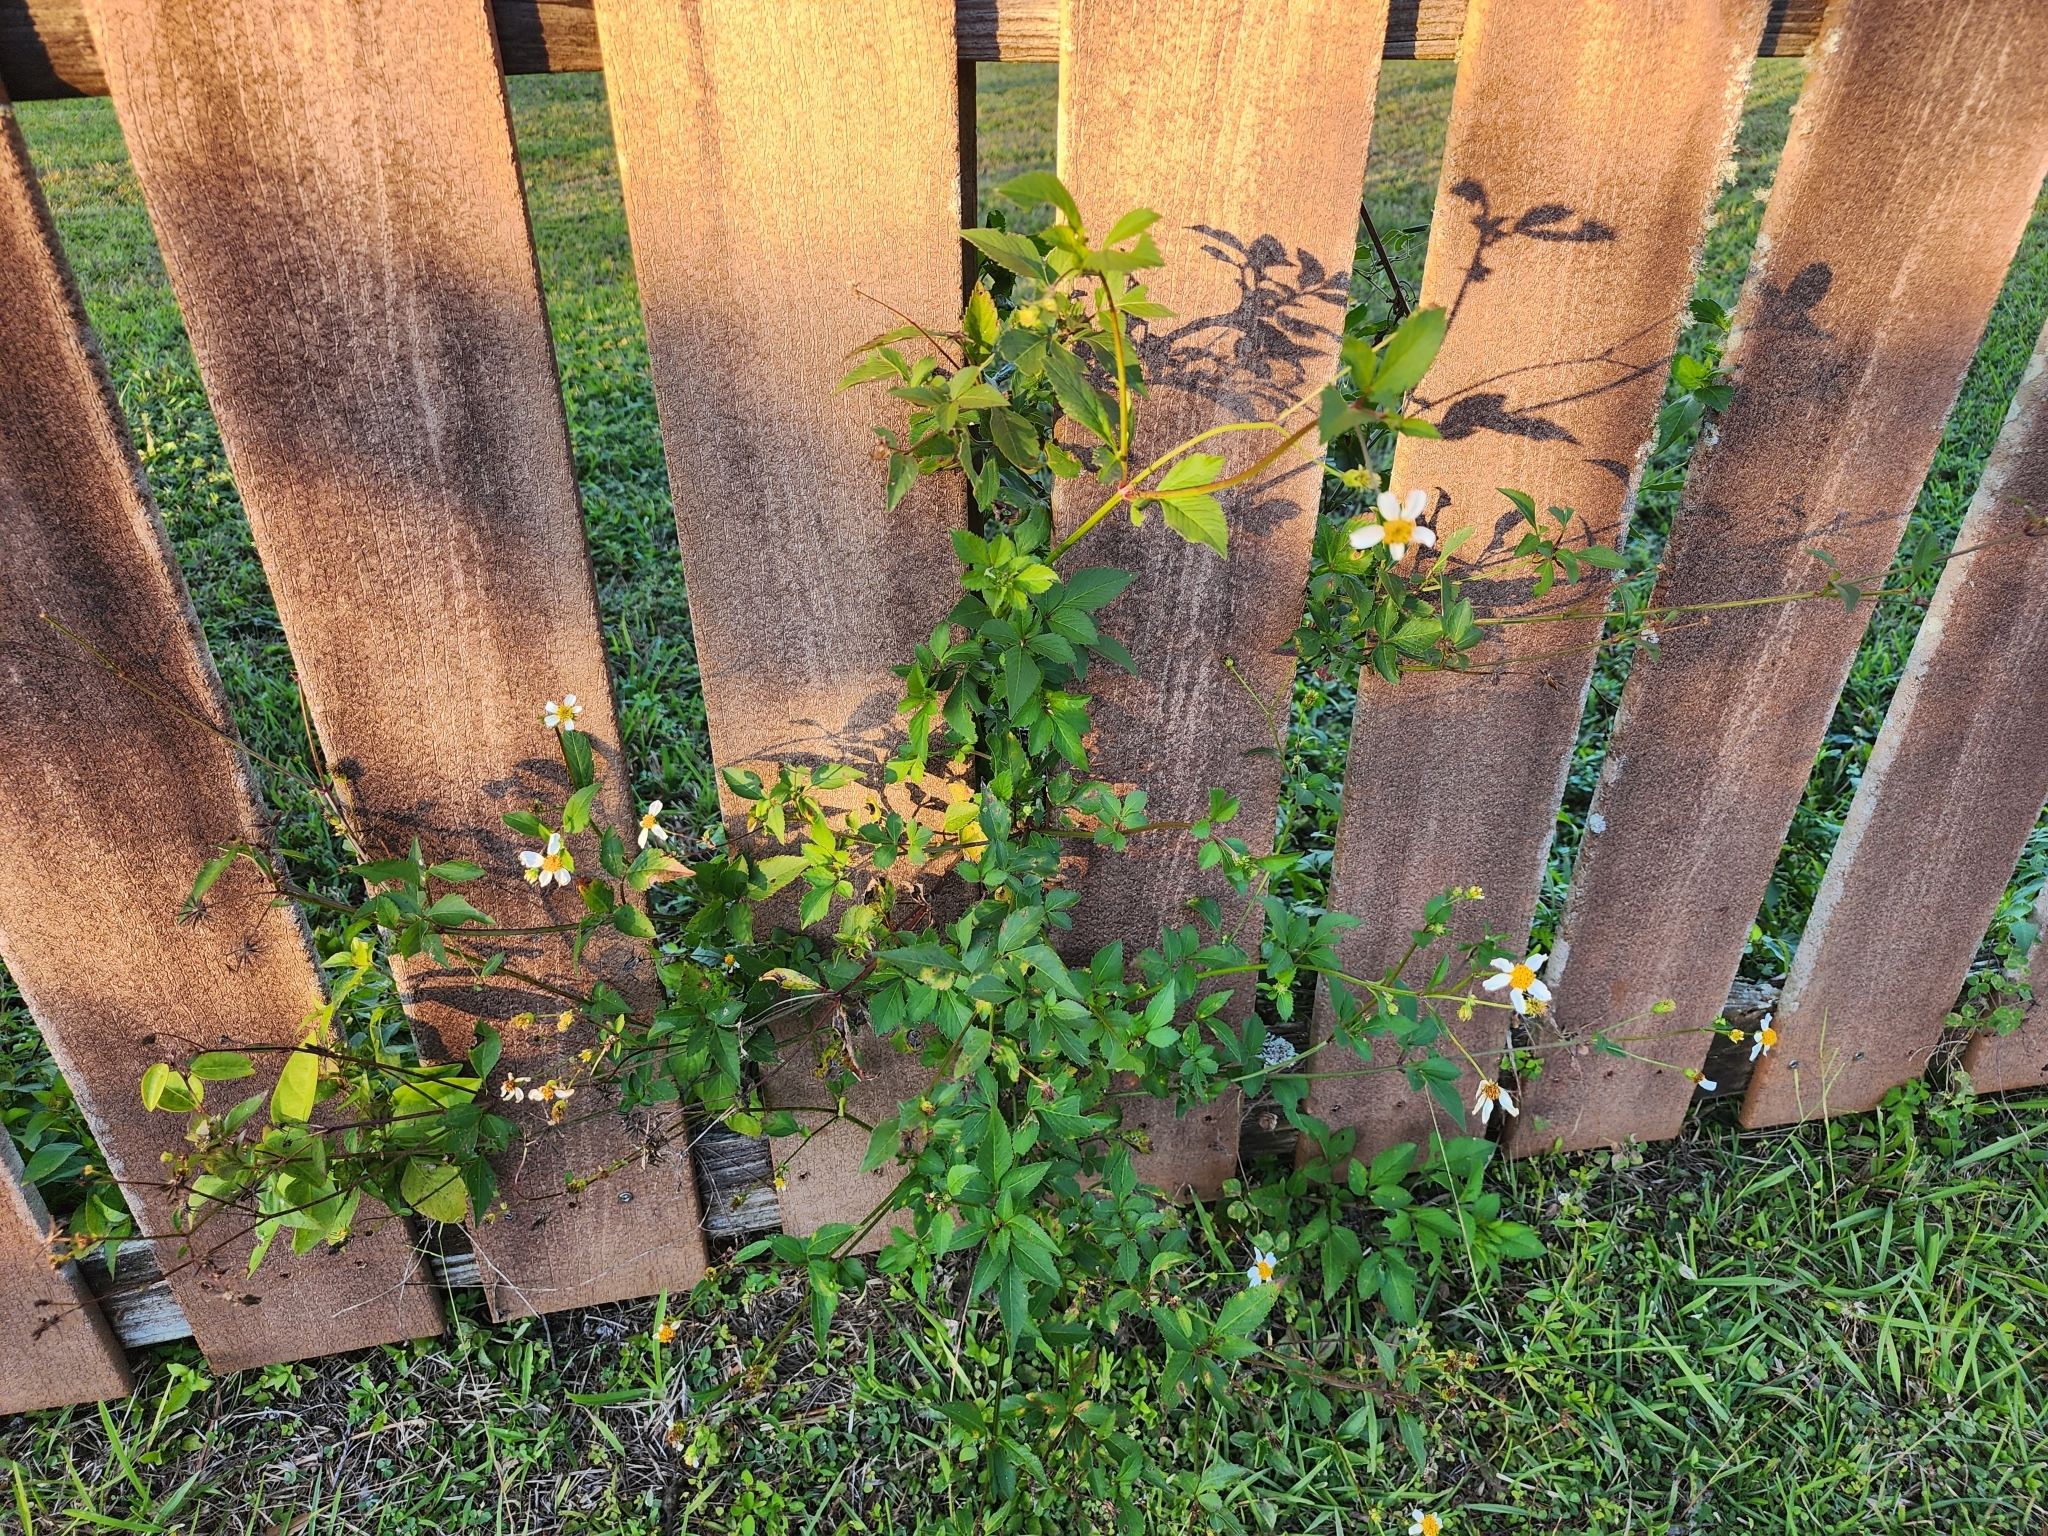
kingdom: Plantae
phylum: Tracheophyta
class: Magnoliopsida
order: Asterales
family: Asteraceae
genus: Bidens
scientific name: Bidens alba
